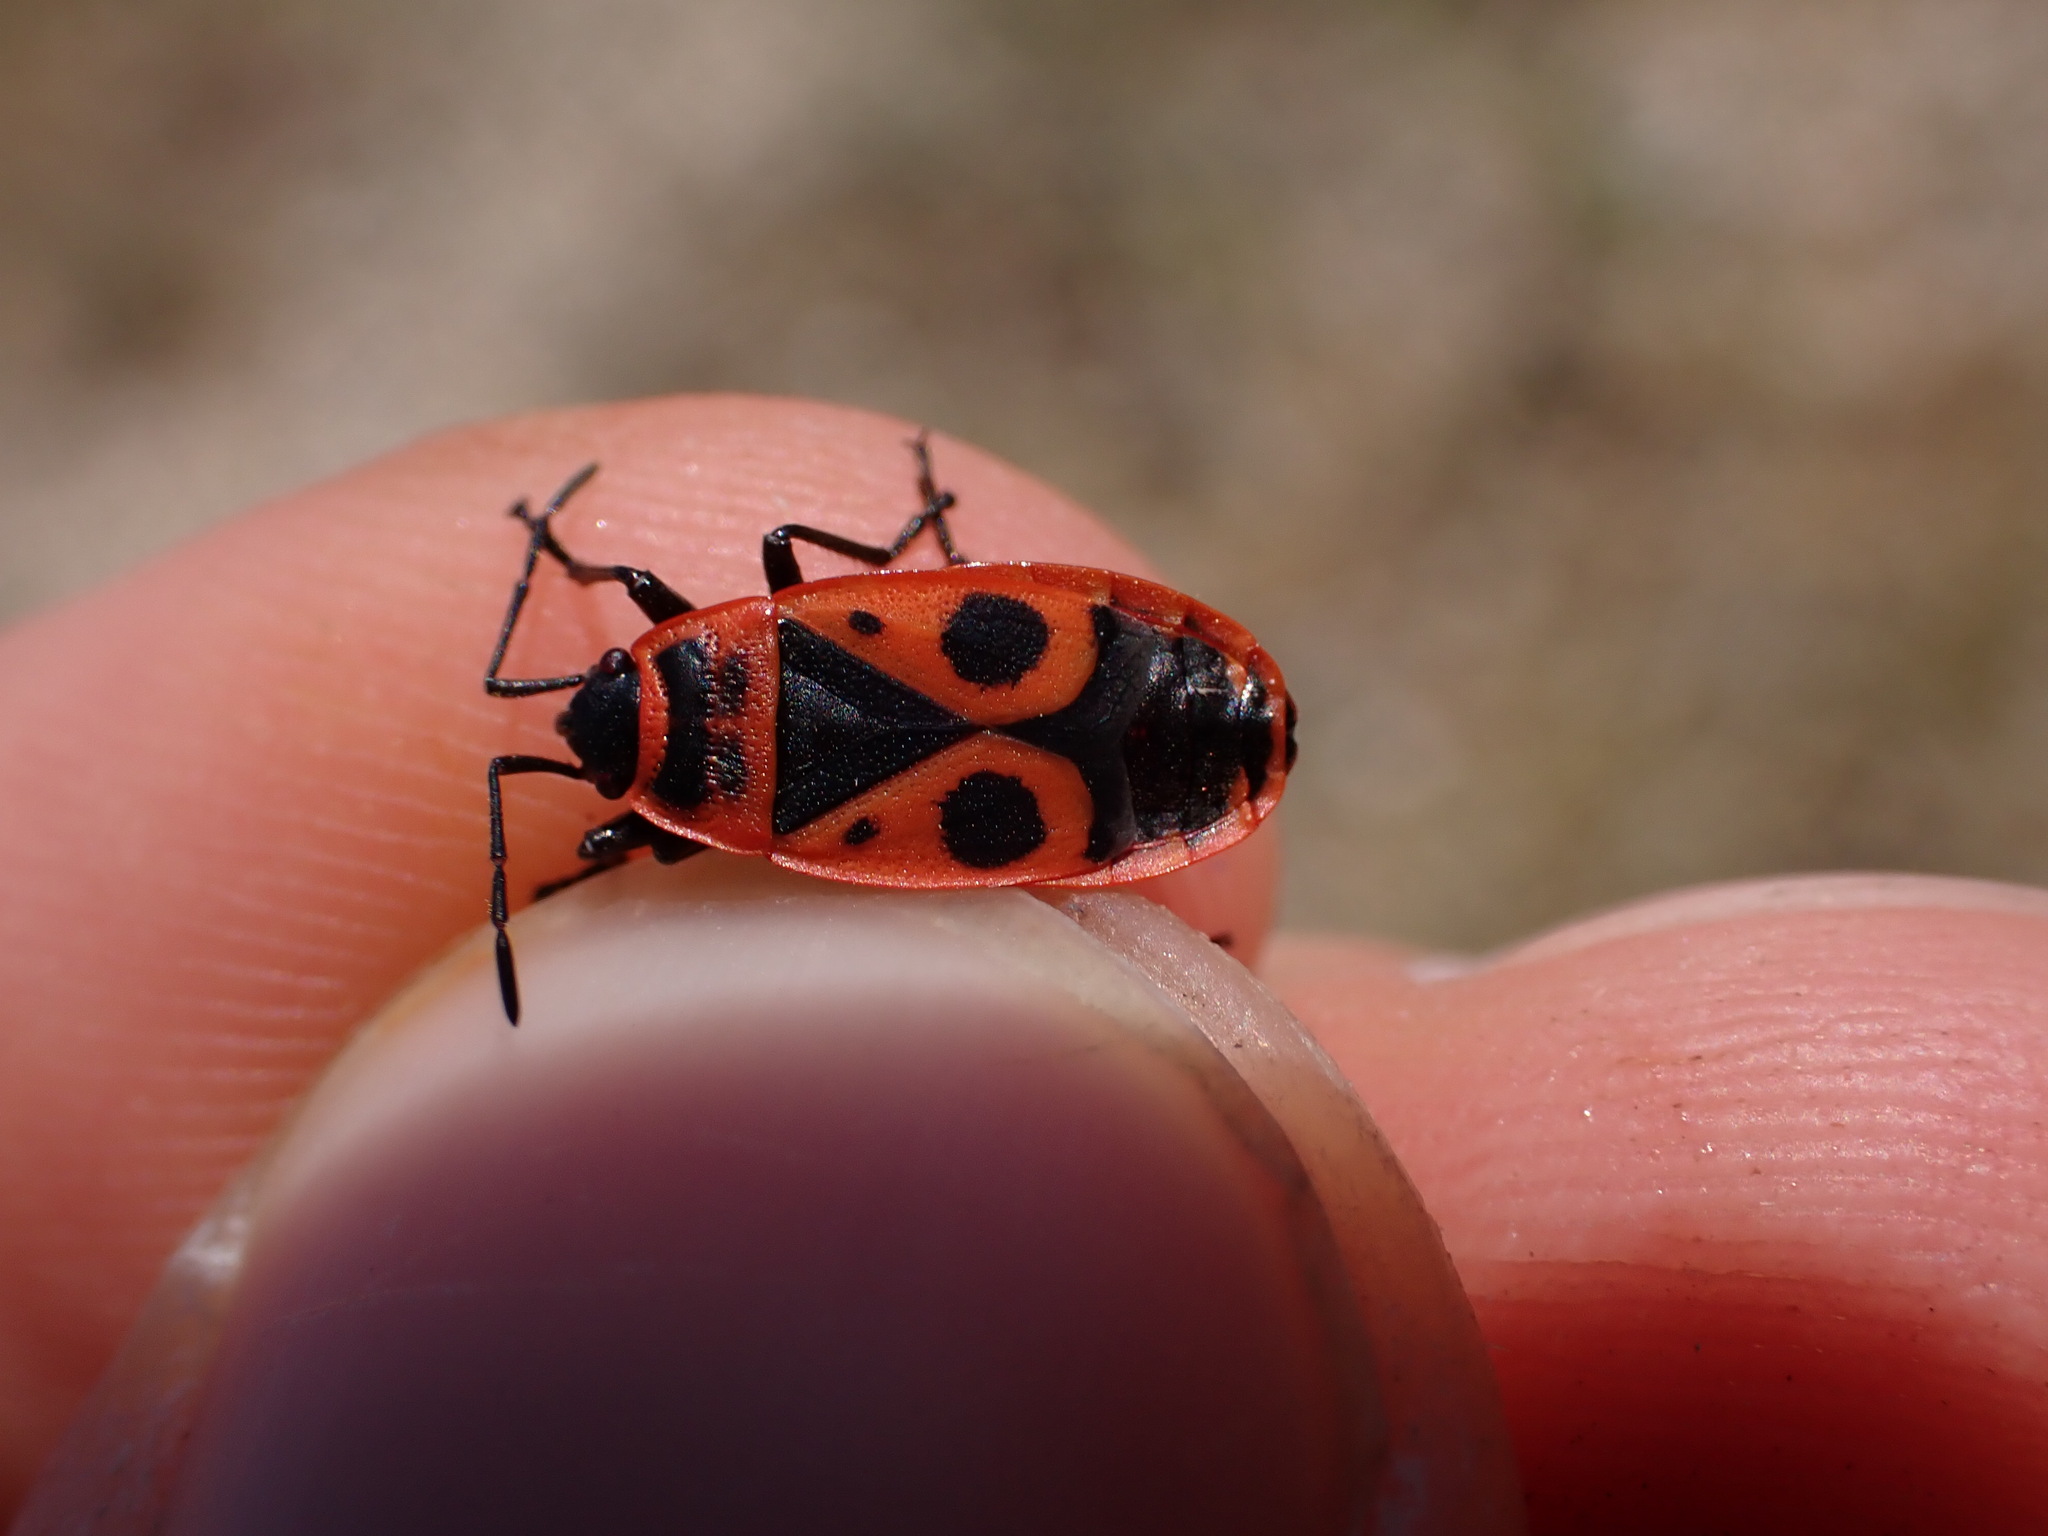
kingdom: Animalia
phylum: Arthropoda
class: Insecta
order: Hemiptera
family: Pyrrhocoridae
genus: Pyrrhocoris
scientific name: Pyrrhocoris apterus
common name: Firebug
